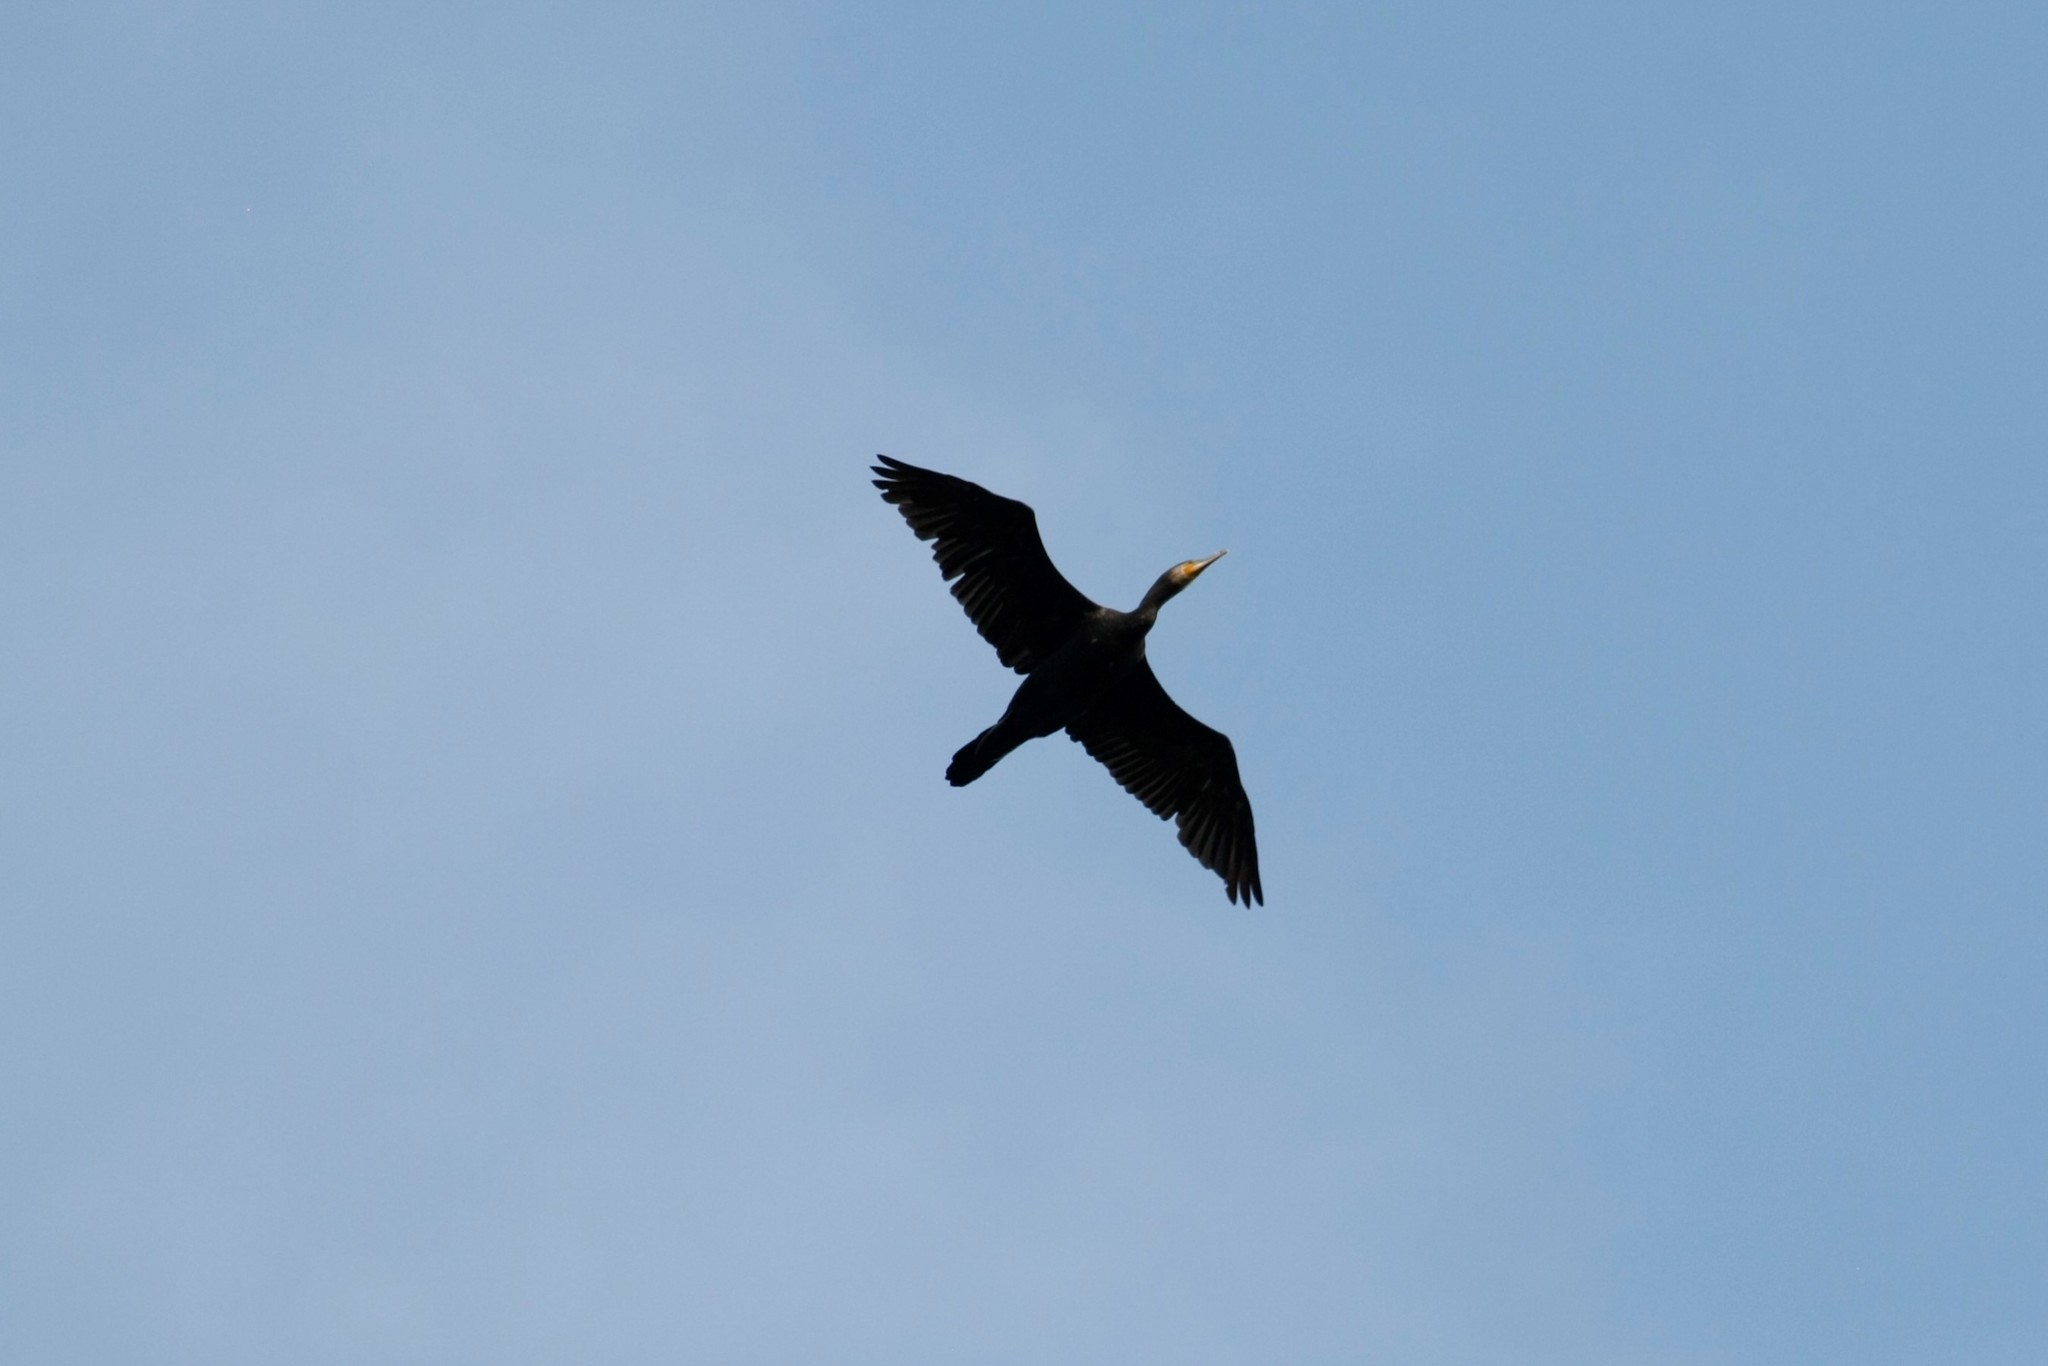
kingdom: Animalia
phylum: Chordata
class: Aves
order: Suliformes
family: Phalacrocoracidae
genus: Phalacrocorax
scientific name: Phalacrocorax carbo
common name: Great cormorant
